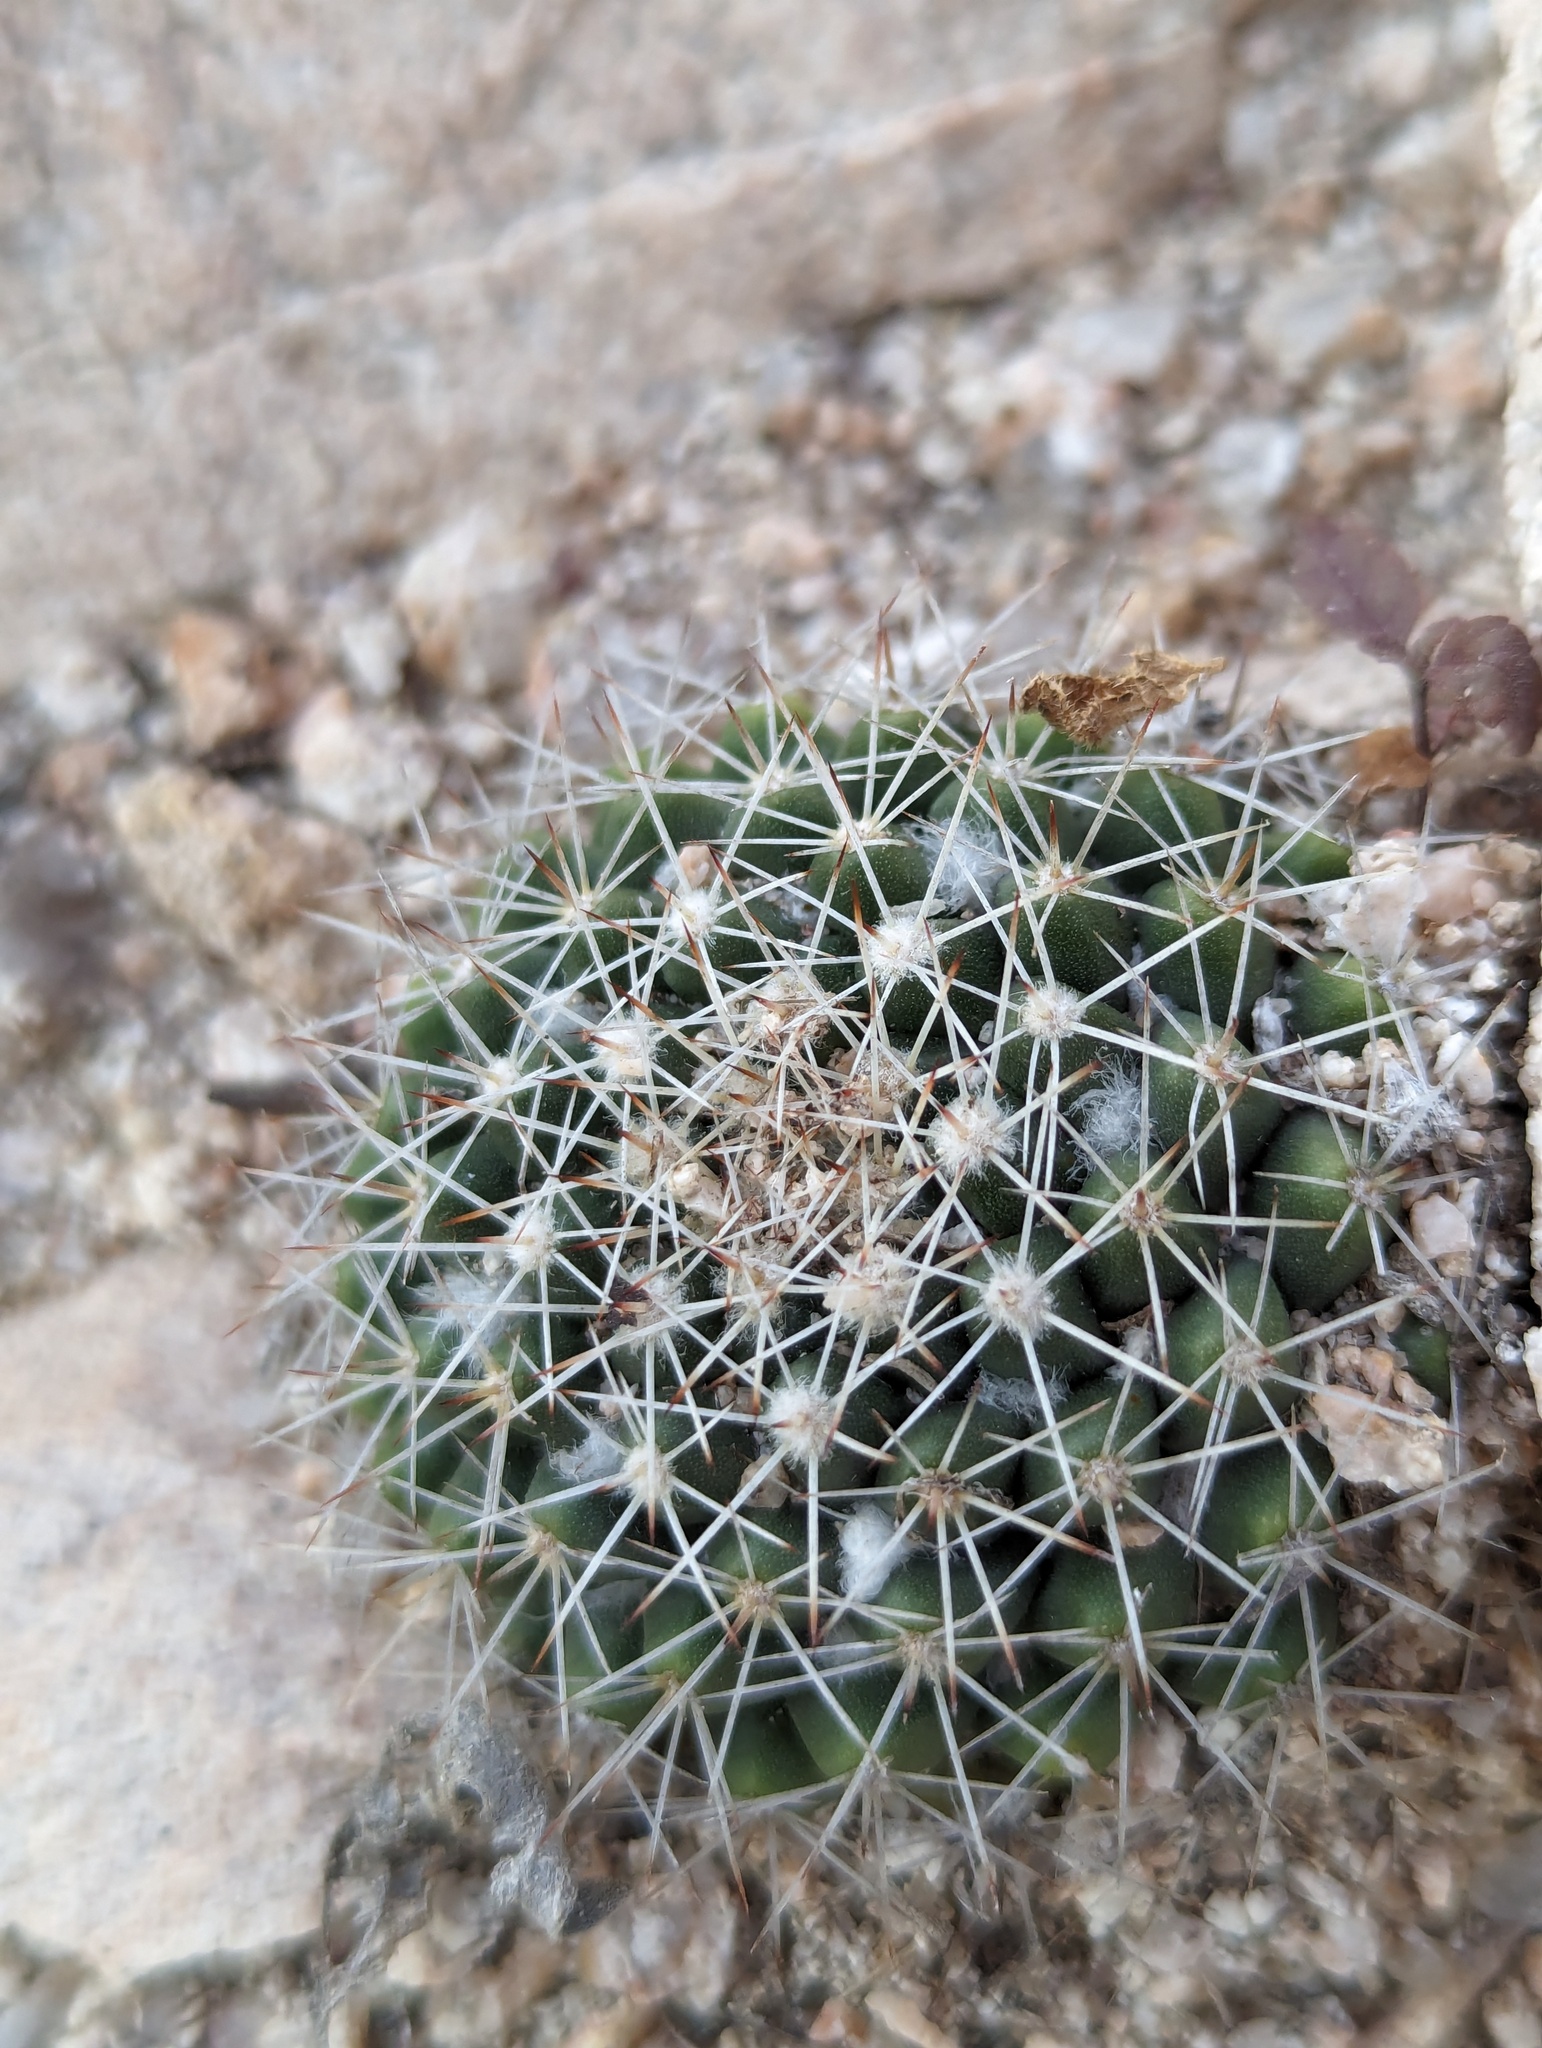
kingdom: Plantae
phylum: Tracheophyta
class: Magnoliopsida
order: Caryophyllales
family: Cactaceae
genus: Mammillaria
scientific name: Mammillaria petrophila
